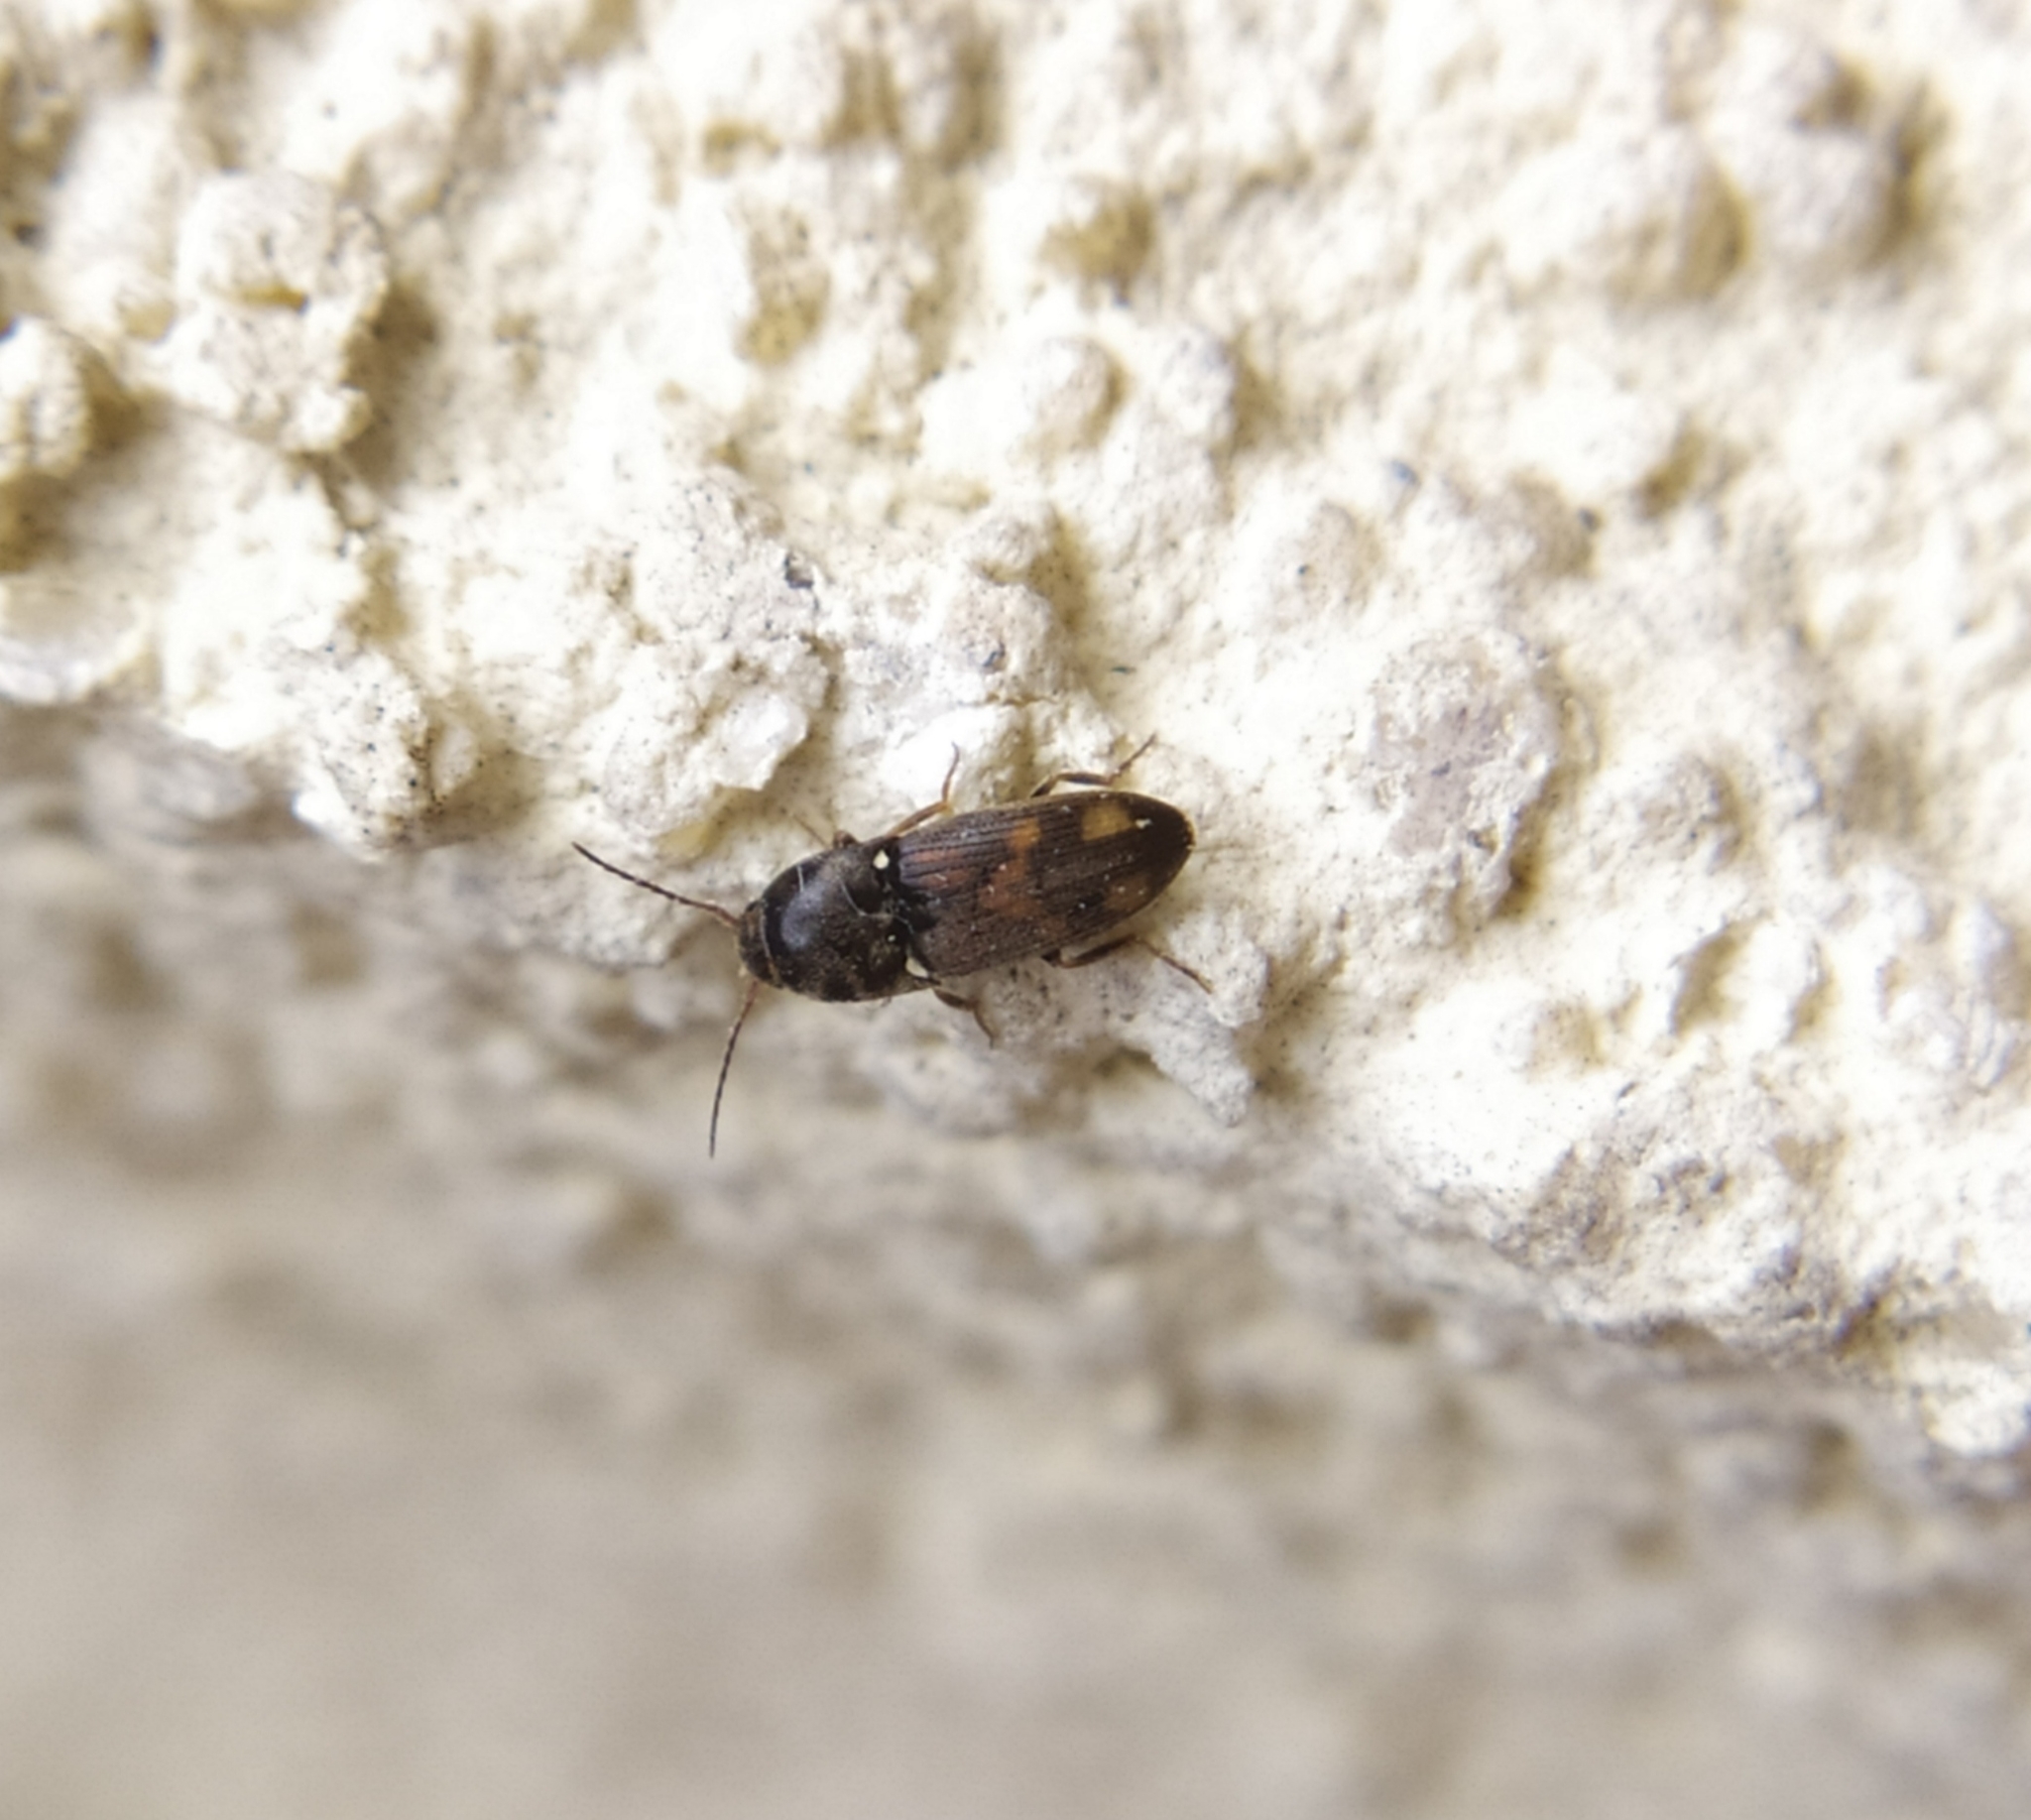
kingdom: Animalia
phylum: Arthropoda
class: Insecta
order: Coleoptera
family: Elateridae
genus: Drasterius
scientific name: Drasterius bimaculatus
